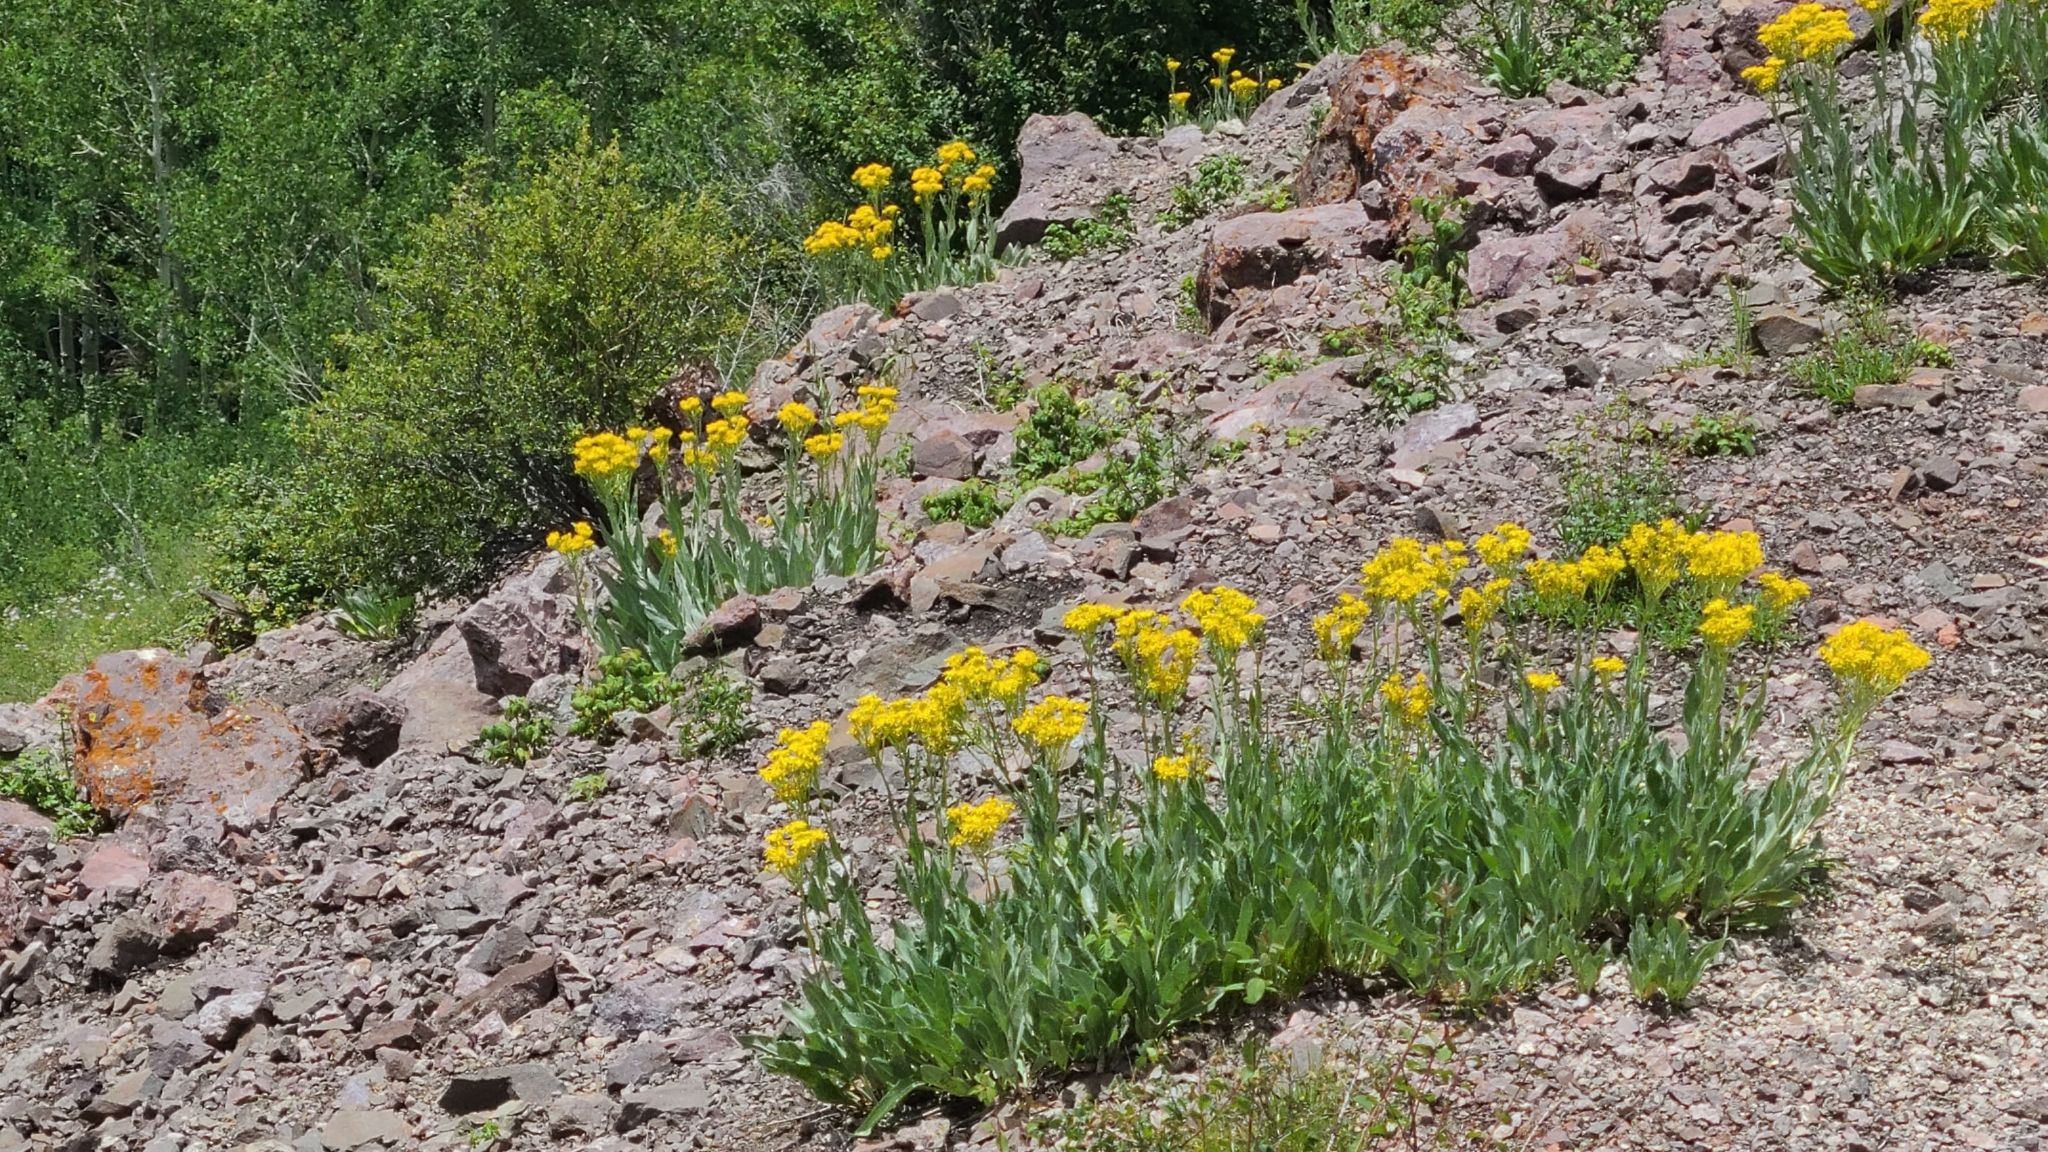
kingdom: Plantae
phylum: Tracheophyta
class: Magnoliopsida
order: Asterales
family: Asteraceae
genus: Senecio
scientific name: Senecio atratus
